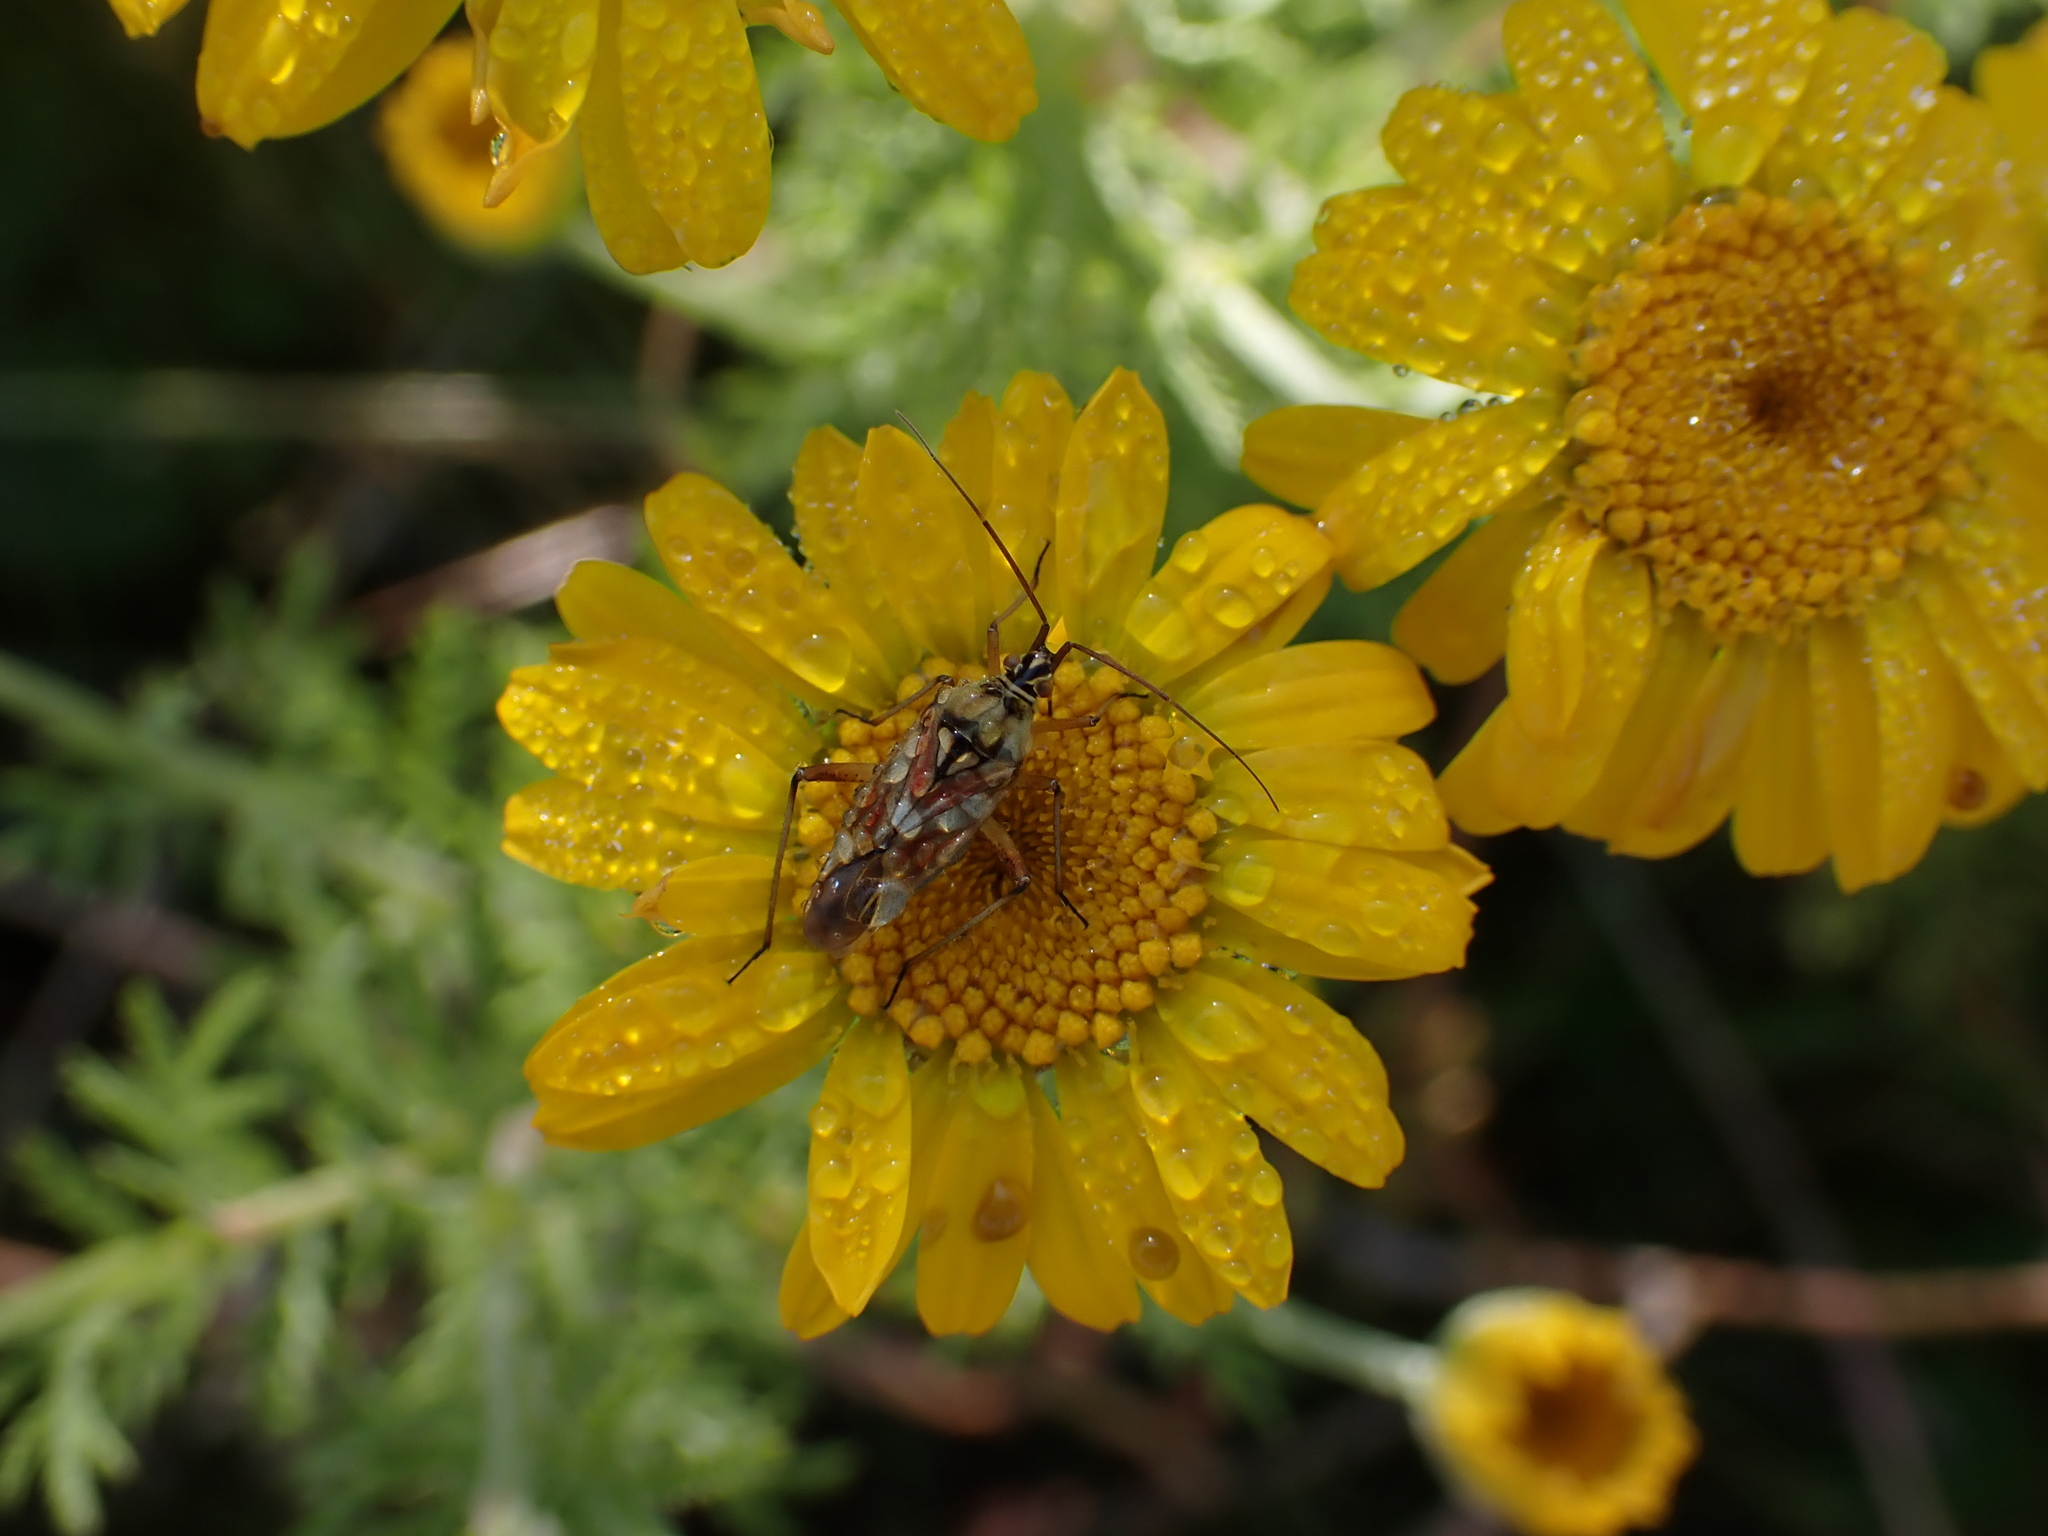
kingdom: Animalia
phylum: Arthropoda
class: Insecta
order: Hemiptera
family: Miridae
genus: Calocoris
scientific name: Calocoris roseomaculatus
